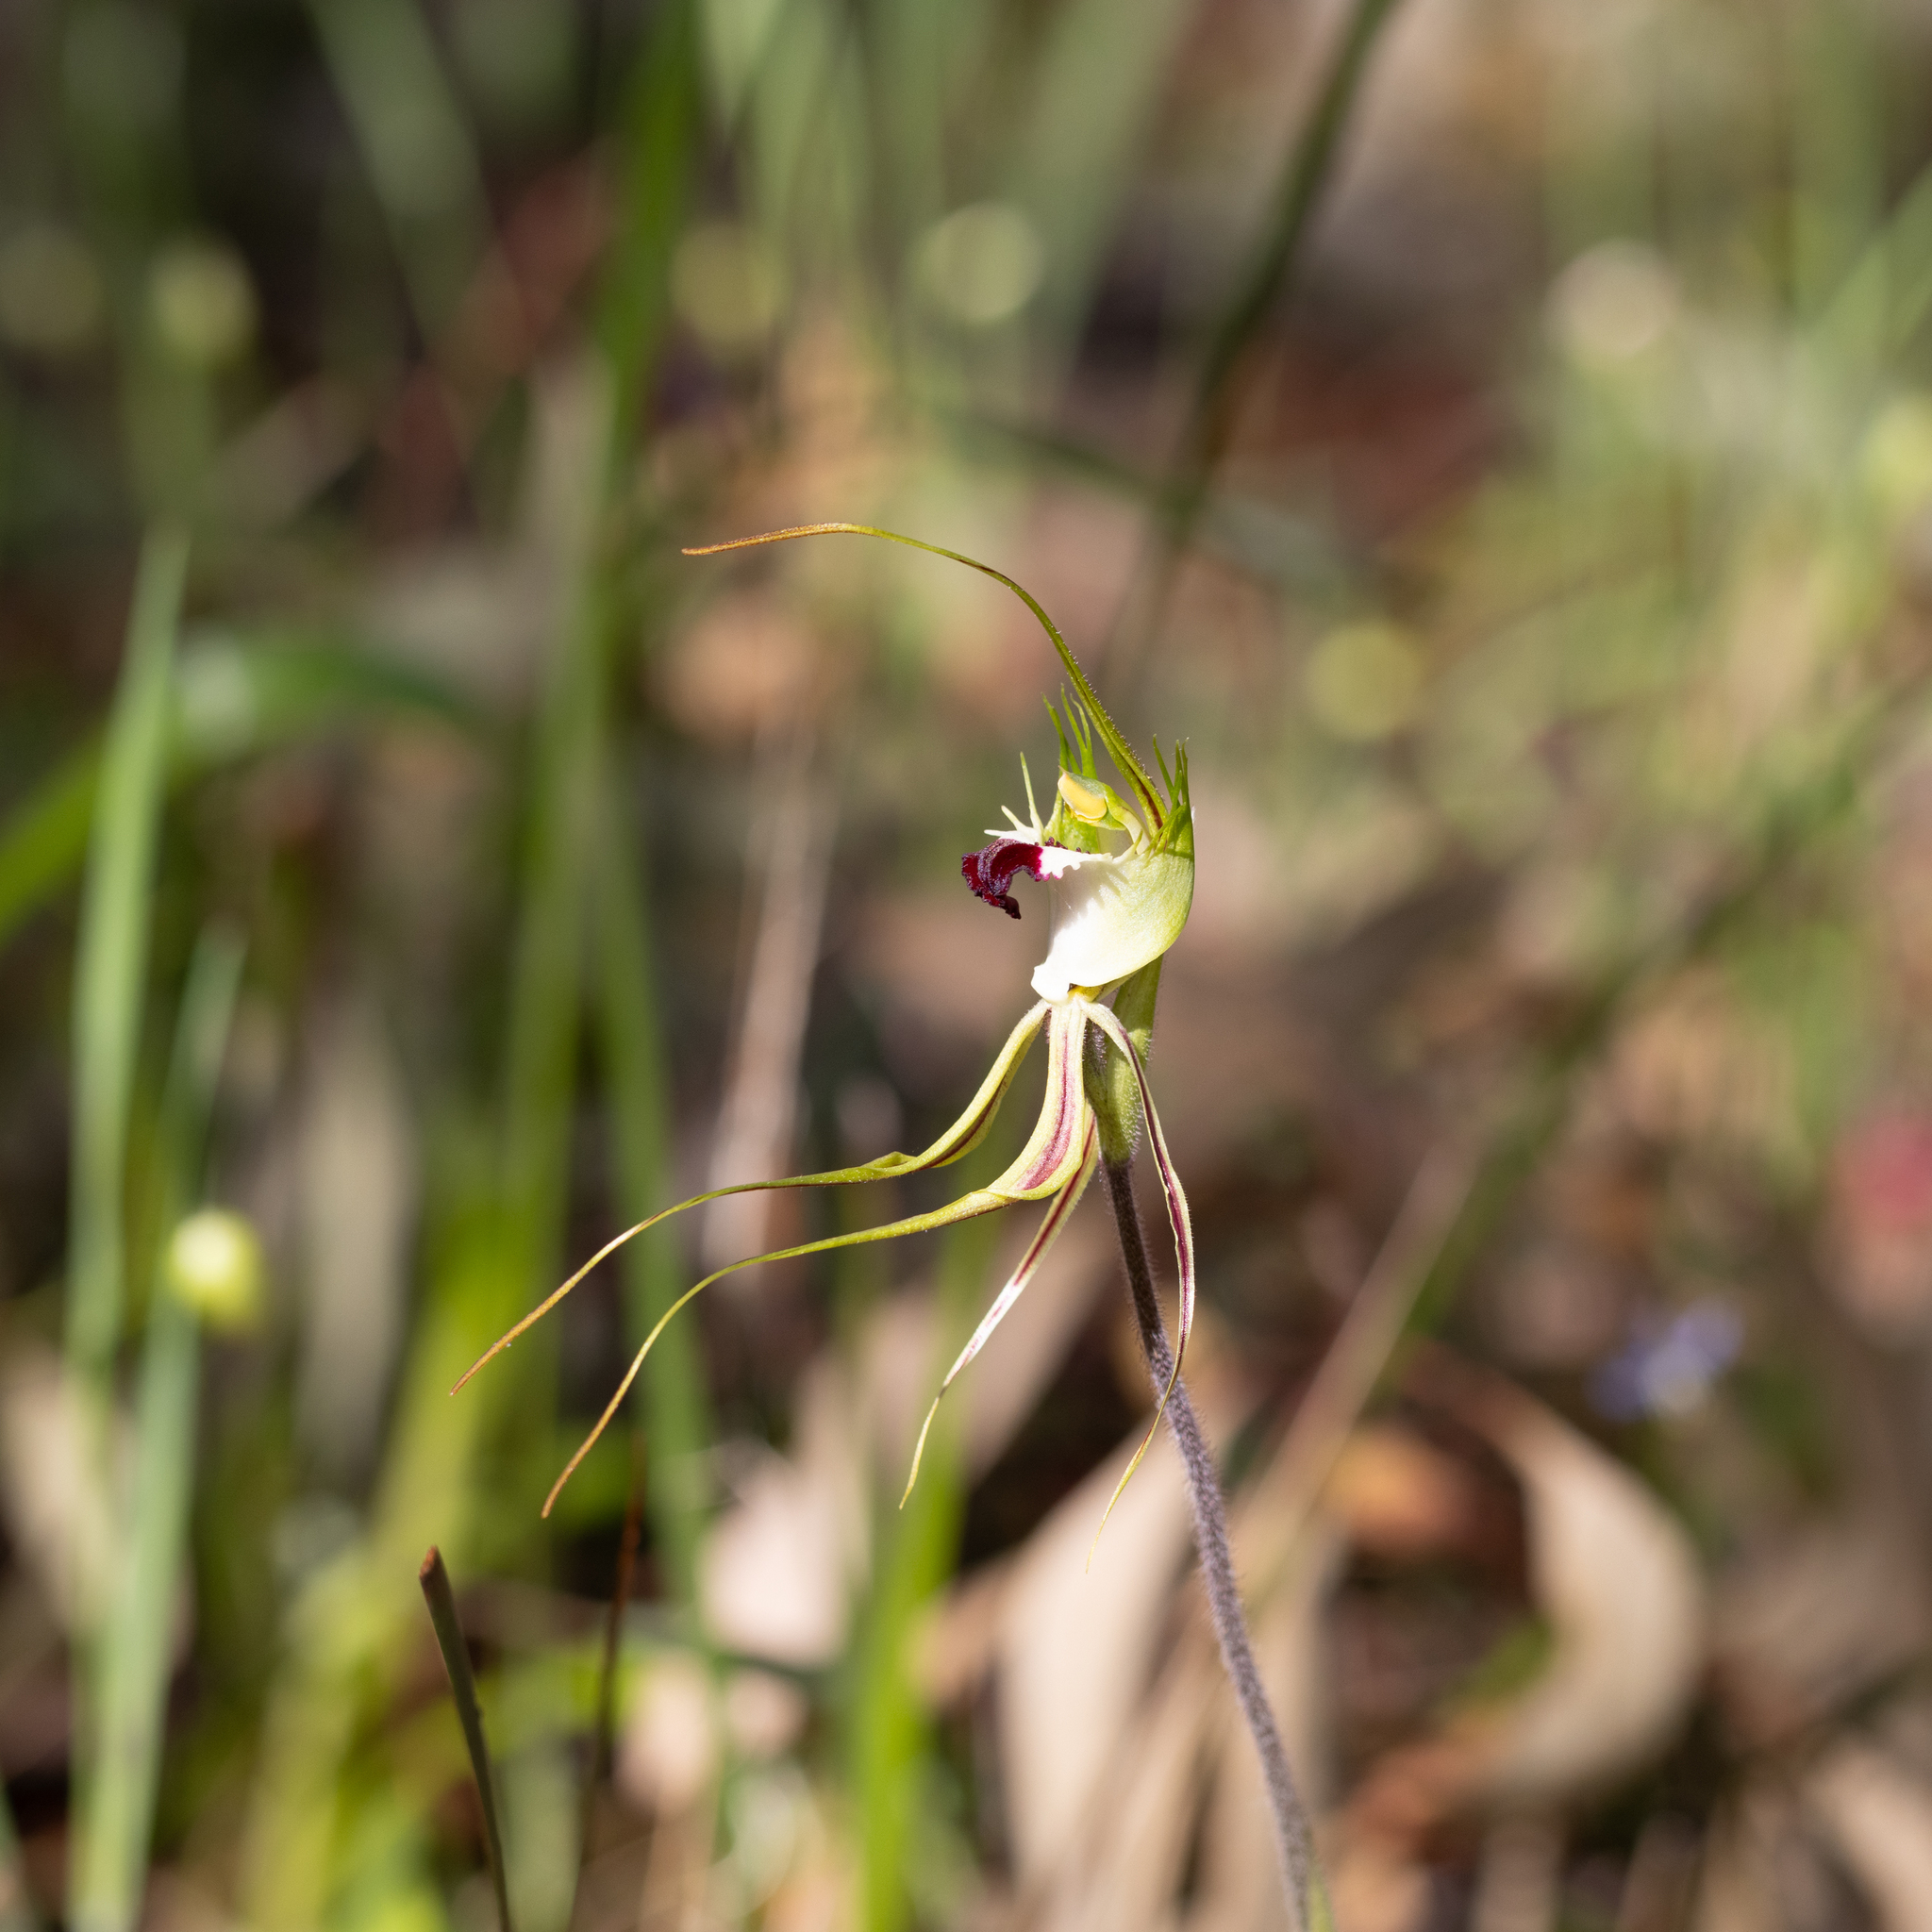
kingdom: Plantae
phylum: Tracheophyta
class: Liliopsida
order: Asparagales
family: Orchidaceae
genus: Caladenia
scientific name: Caladenia tentaculata
